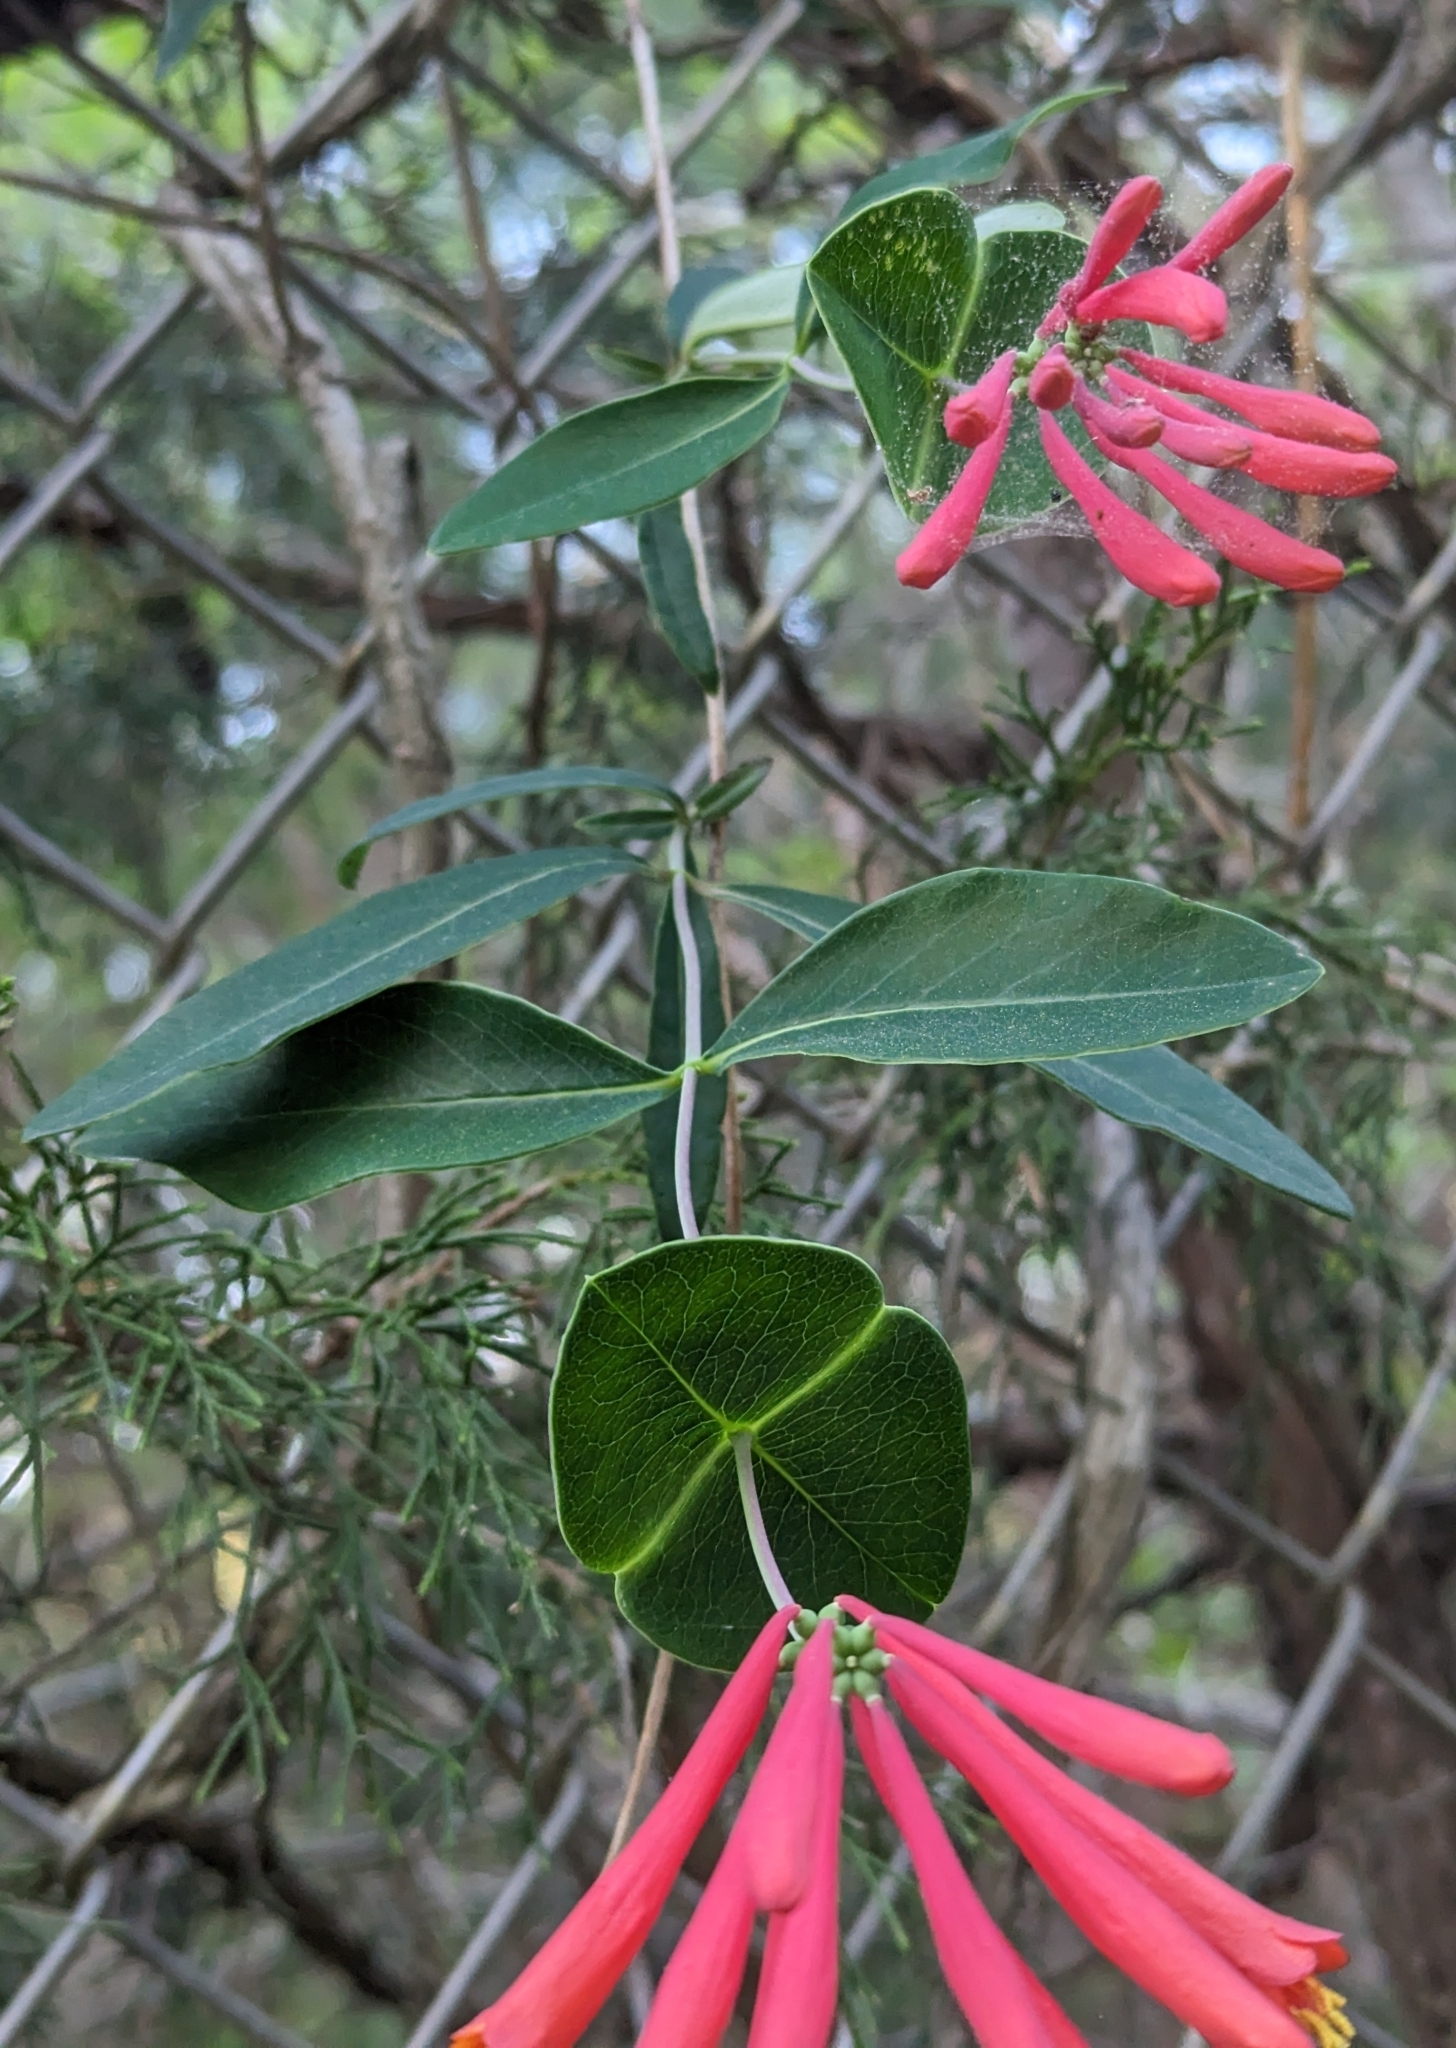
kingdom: Plantae
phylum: Tracheophyta
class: Magnoliopsida
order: Dipsacales
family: Caprifoliaceae
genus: Lonicera
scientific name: Lonicera sempervirens
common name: Coral honeysuckle
